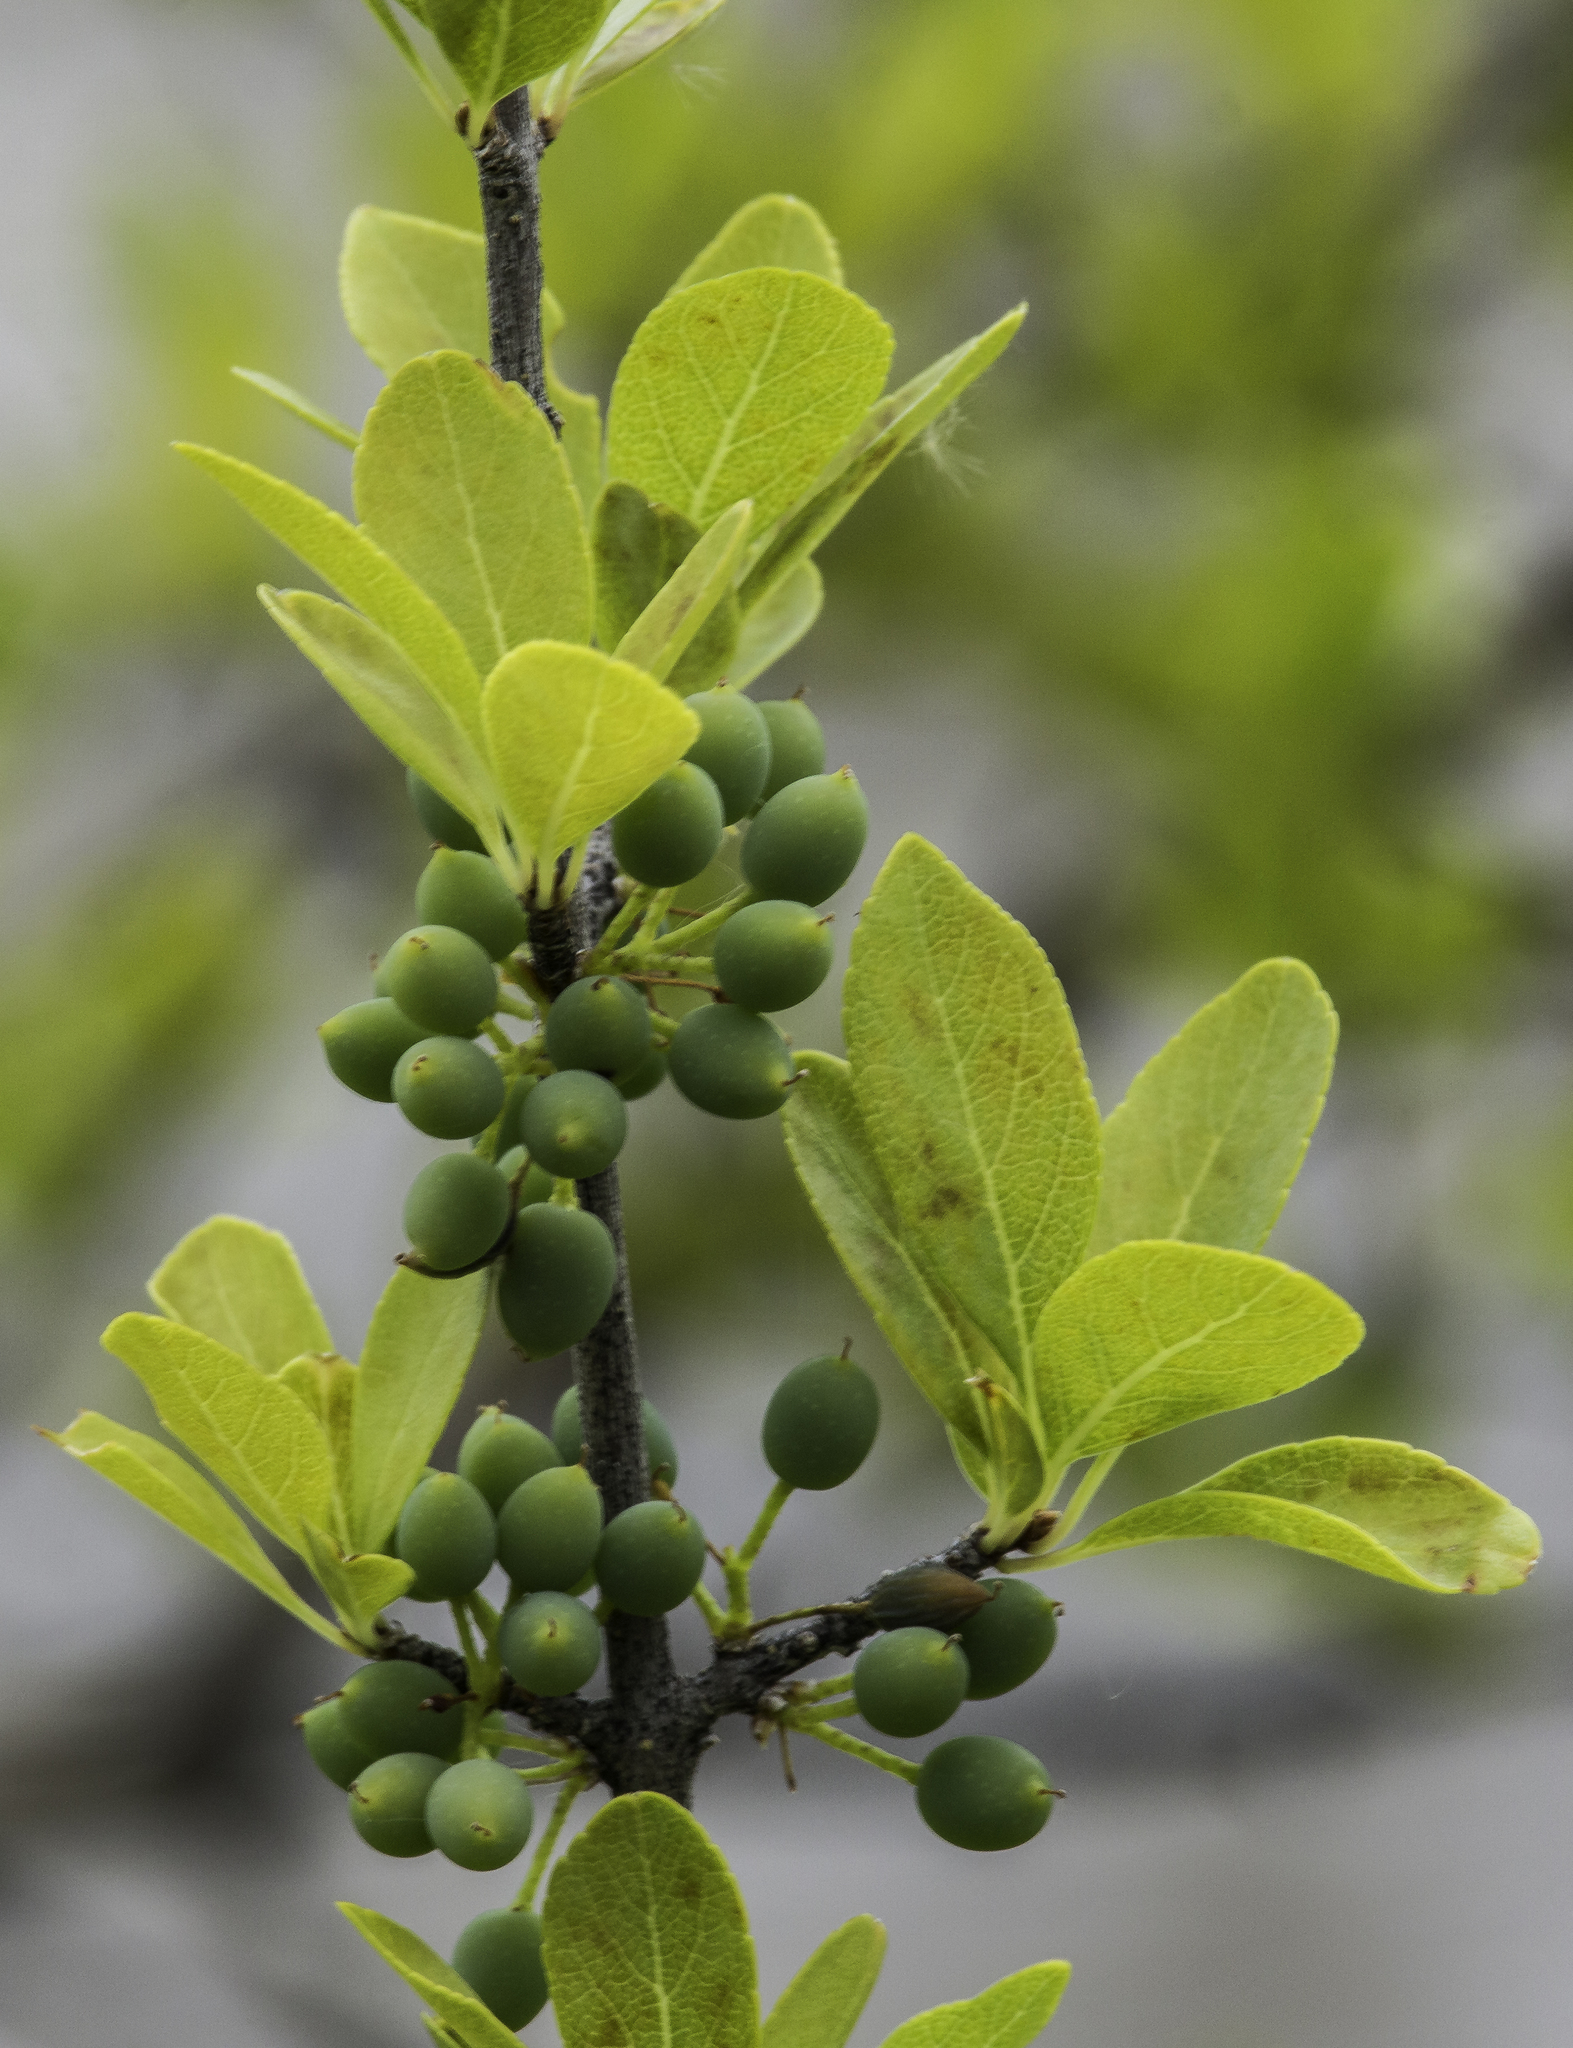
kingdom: Plantae
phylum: Tracheophyta
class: Magnoliopsida
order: Lamiales
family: Oleaceae
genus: Forestiera
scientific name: Forestiera pubescens
